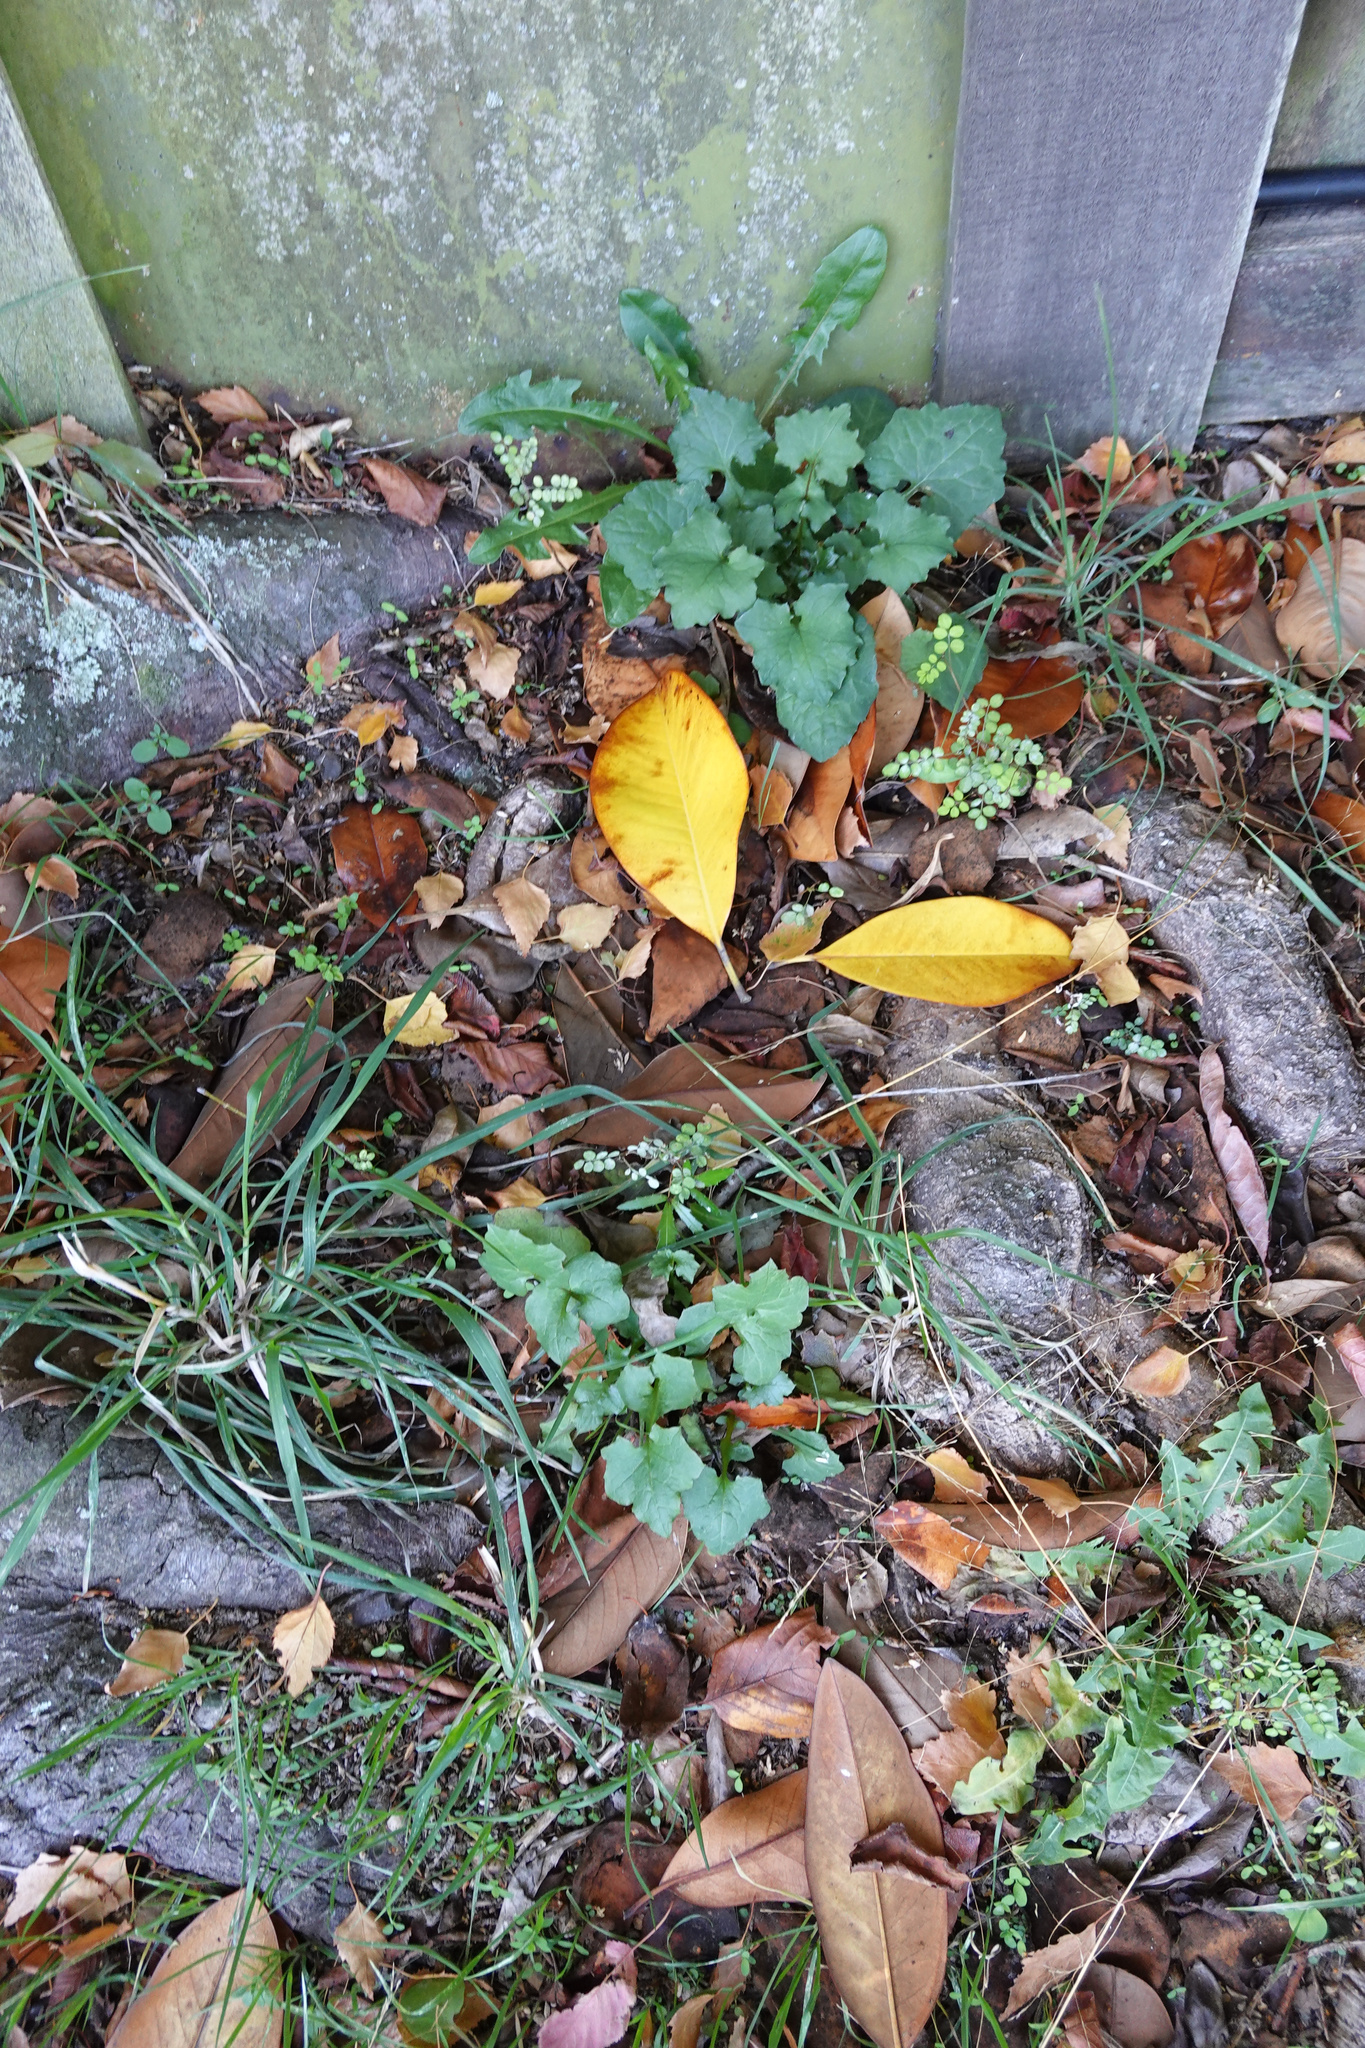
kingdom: Plantae
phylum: Tracheophyta
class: Magnoliopsida
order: Asterales
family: Asteraceae
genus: Mycelis
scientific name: Mycelis muralis
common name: Wall lettuce
